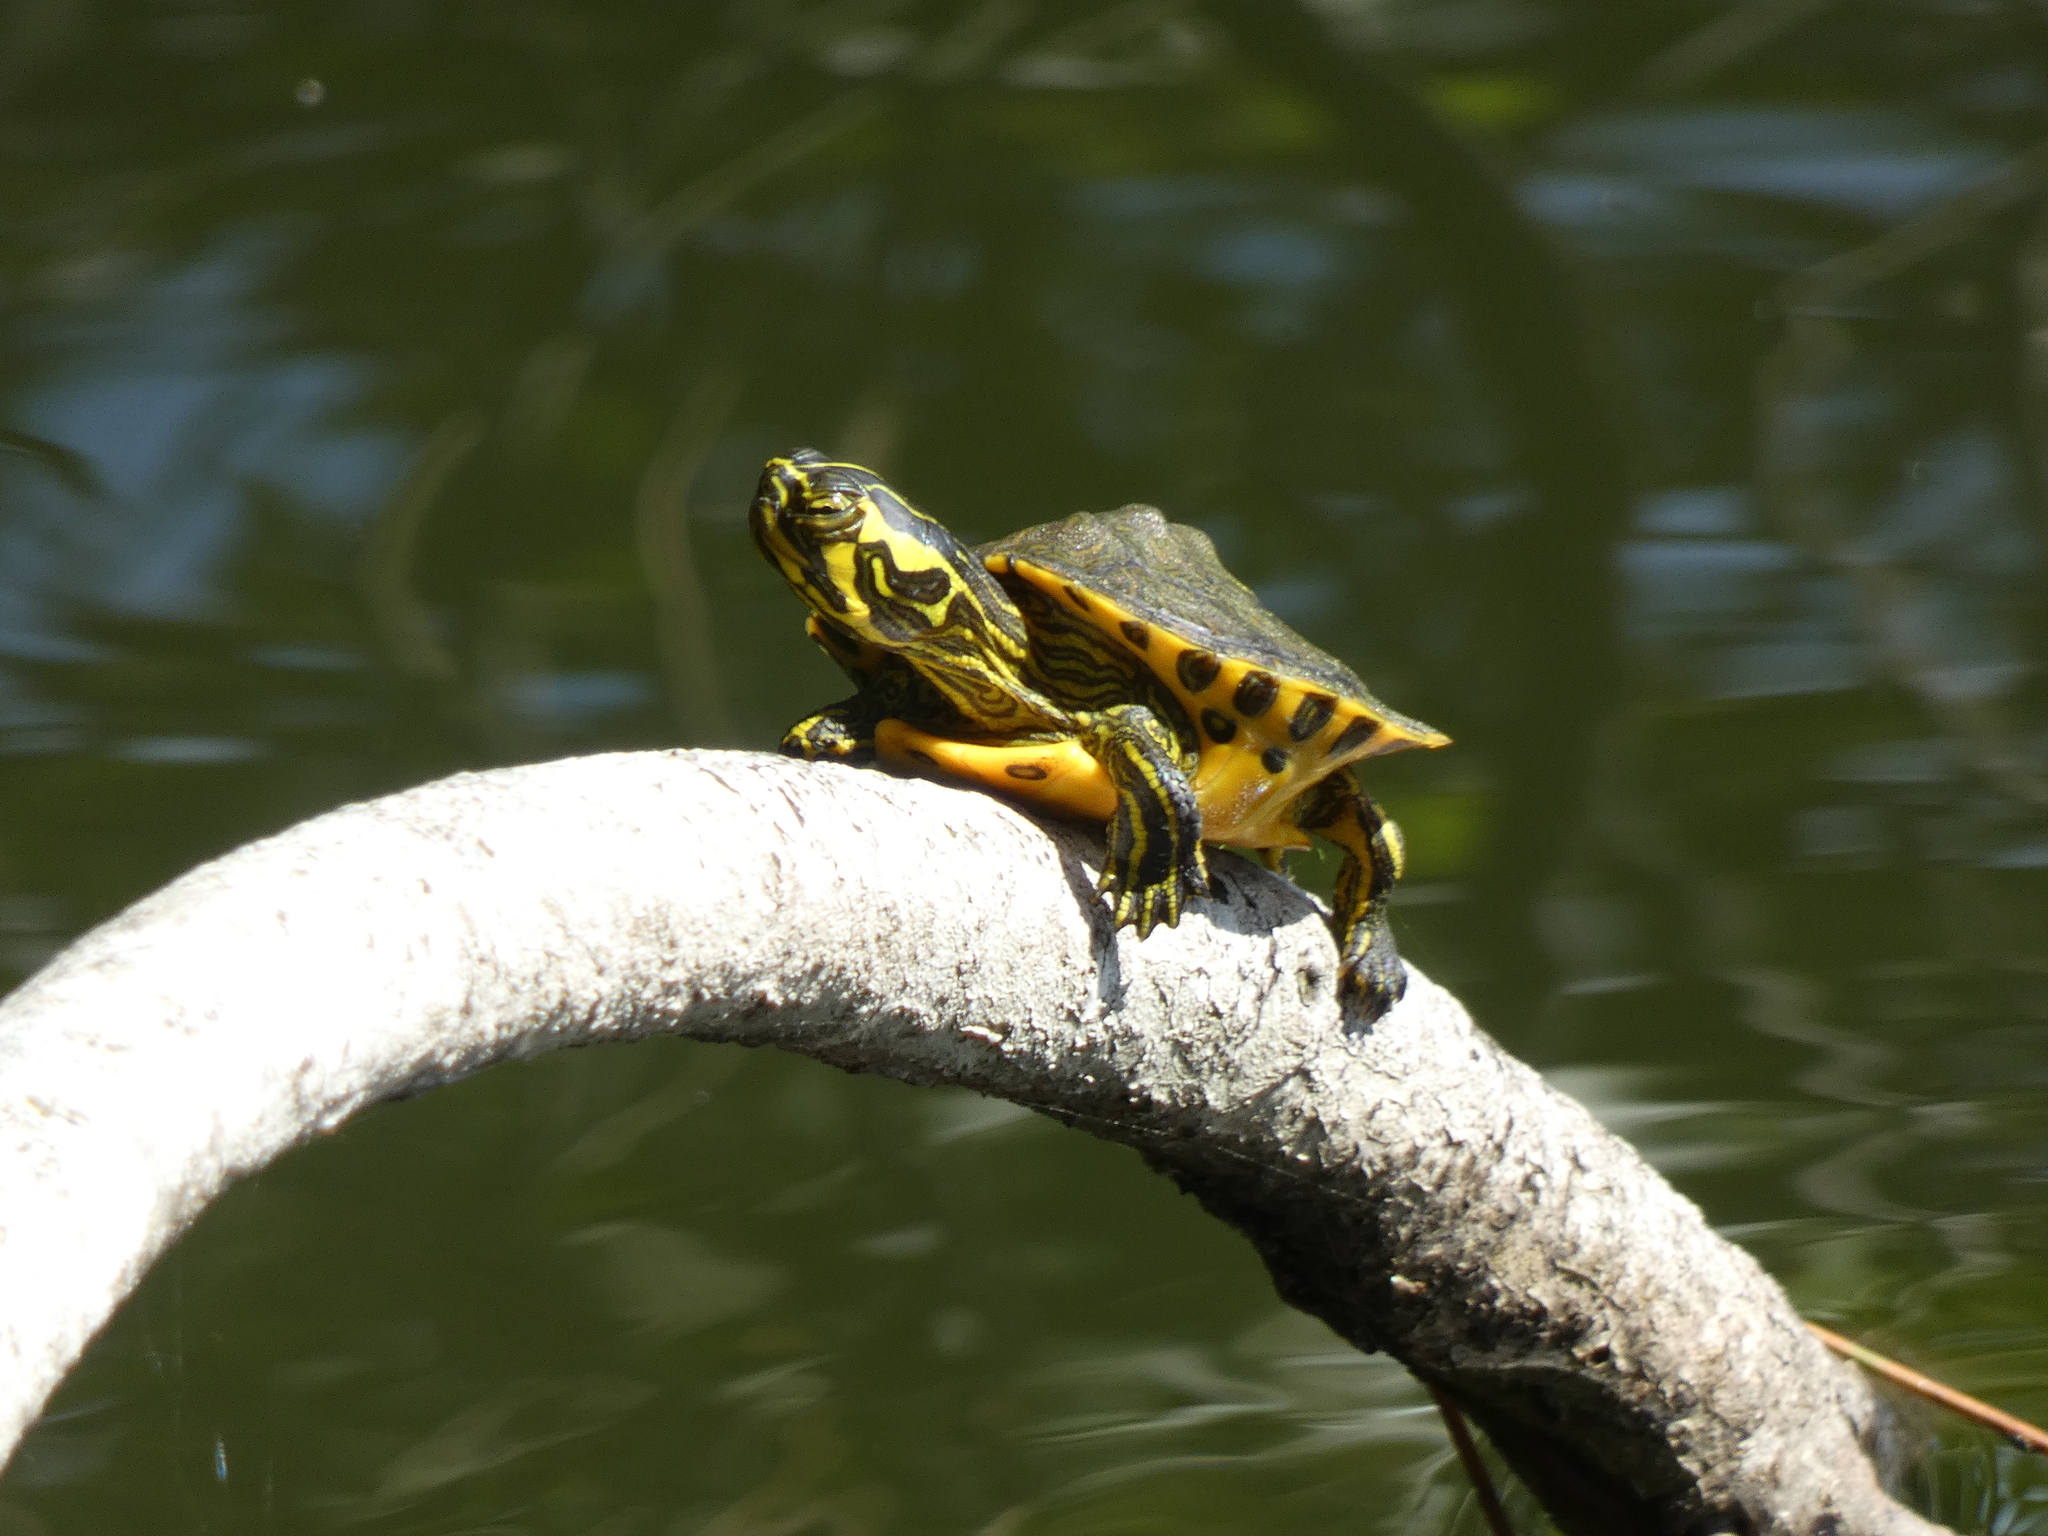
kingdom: Animalia
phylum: Chordata
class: Testudines
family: Emydidae
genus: Trachemys
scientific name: Trachemys scripta
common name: Slider
